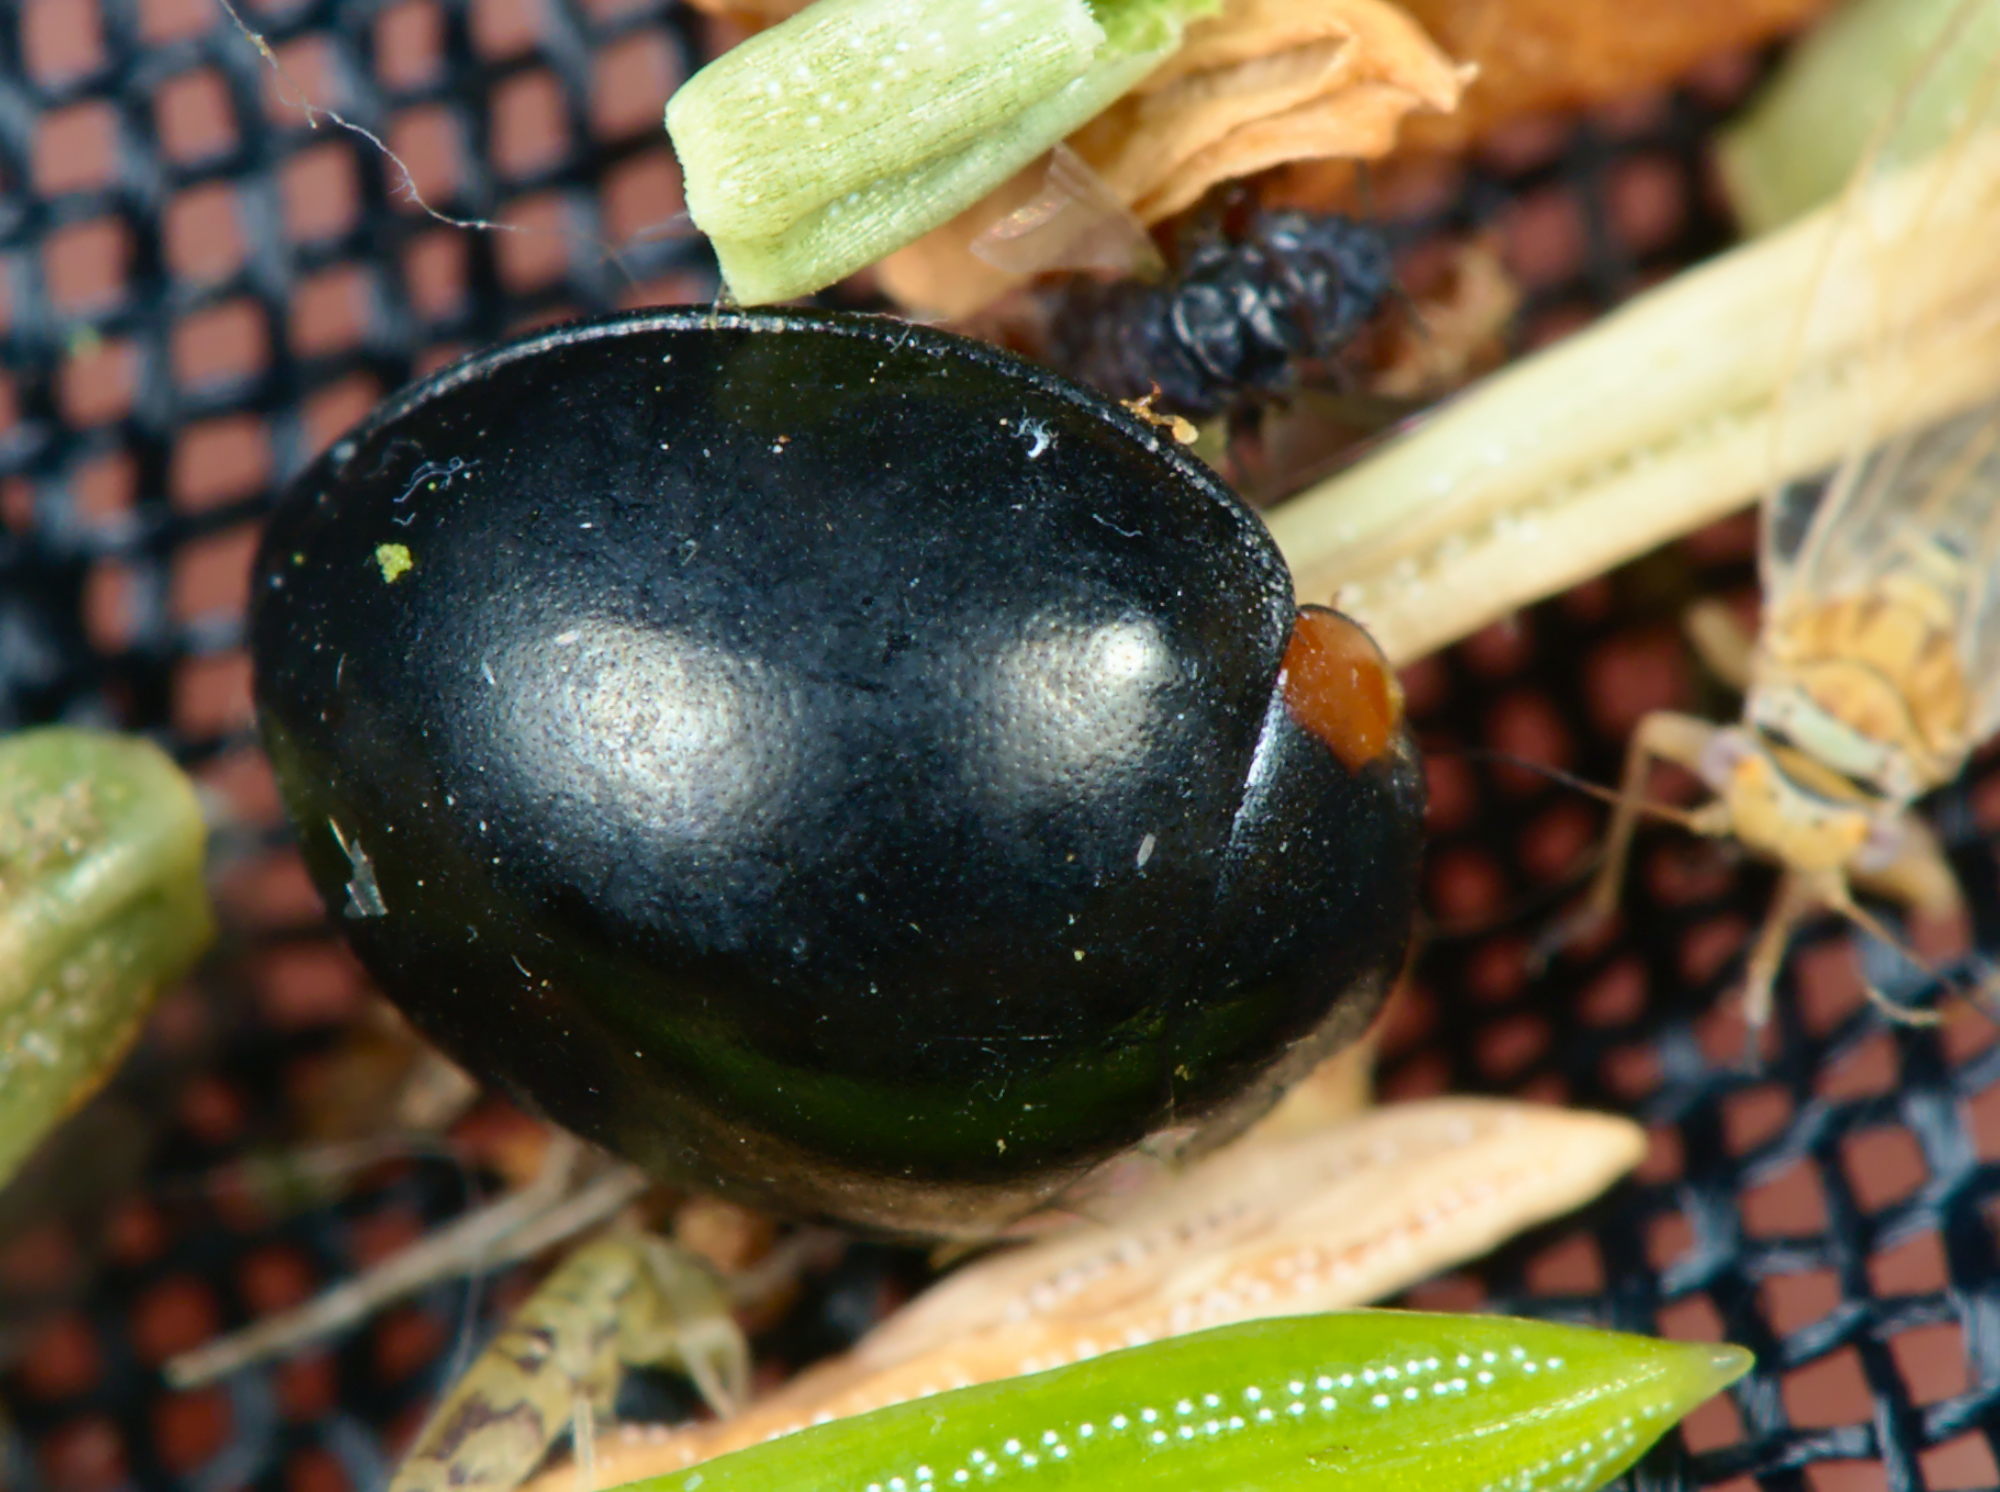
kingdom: Animalia
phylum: Arthropoda
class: Insecta
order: Coleoptera
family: Coccinellidae
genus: Parexochomus
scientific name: Parexochomus nigromaculatus
